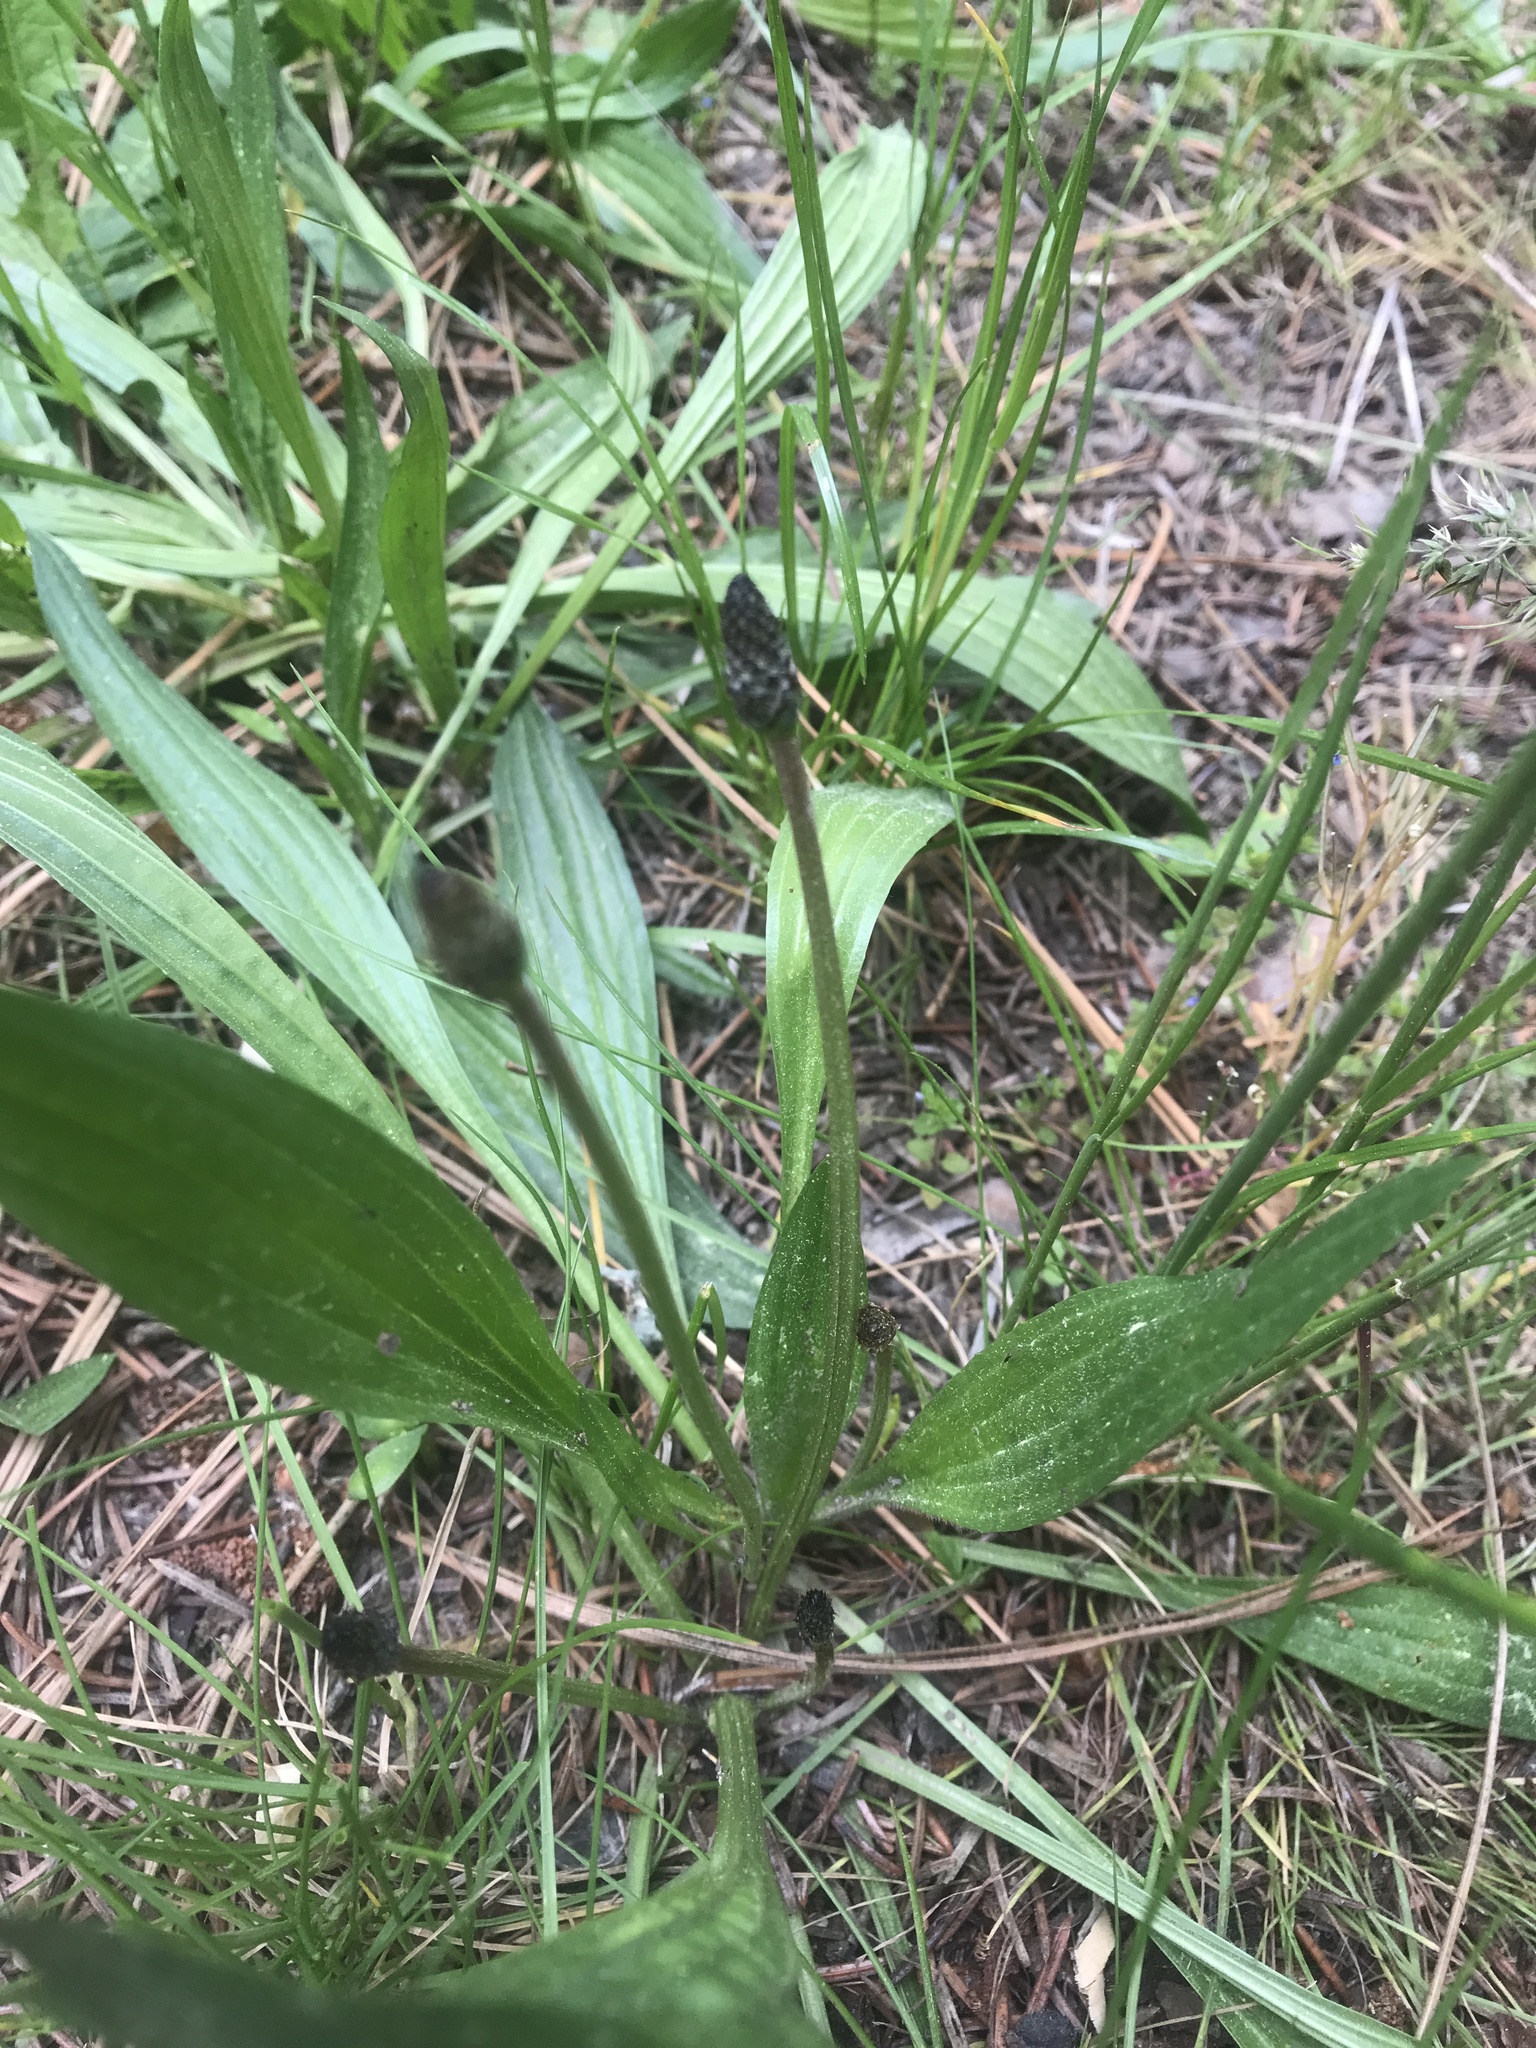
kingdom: Plantae
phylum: Tracheophyta
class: Magnoliopsida
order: Lamiales
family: Plantaginaceae
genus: Plantago
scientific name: Plantago lanceolata
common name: Ribwort plantain
